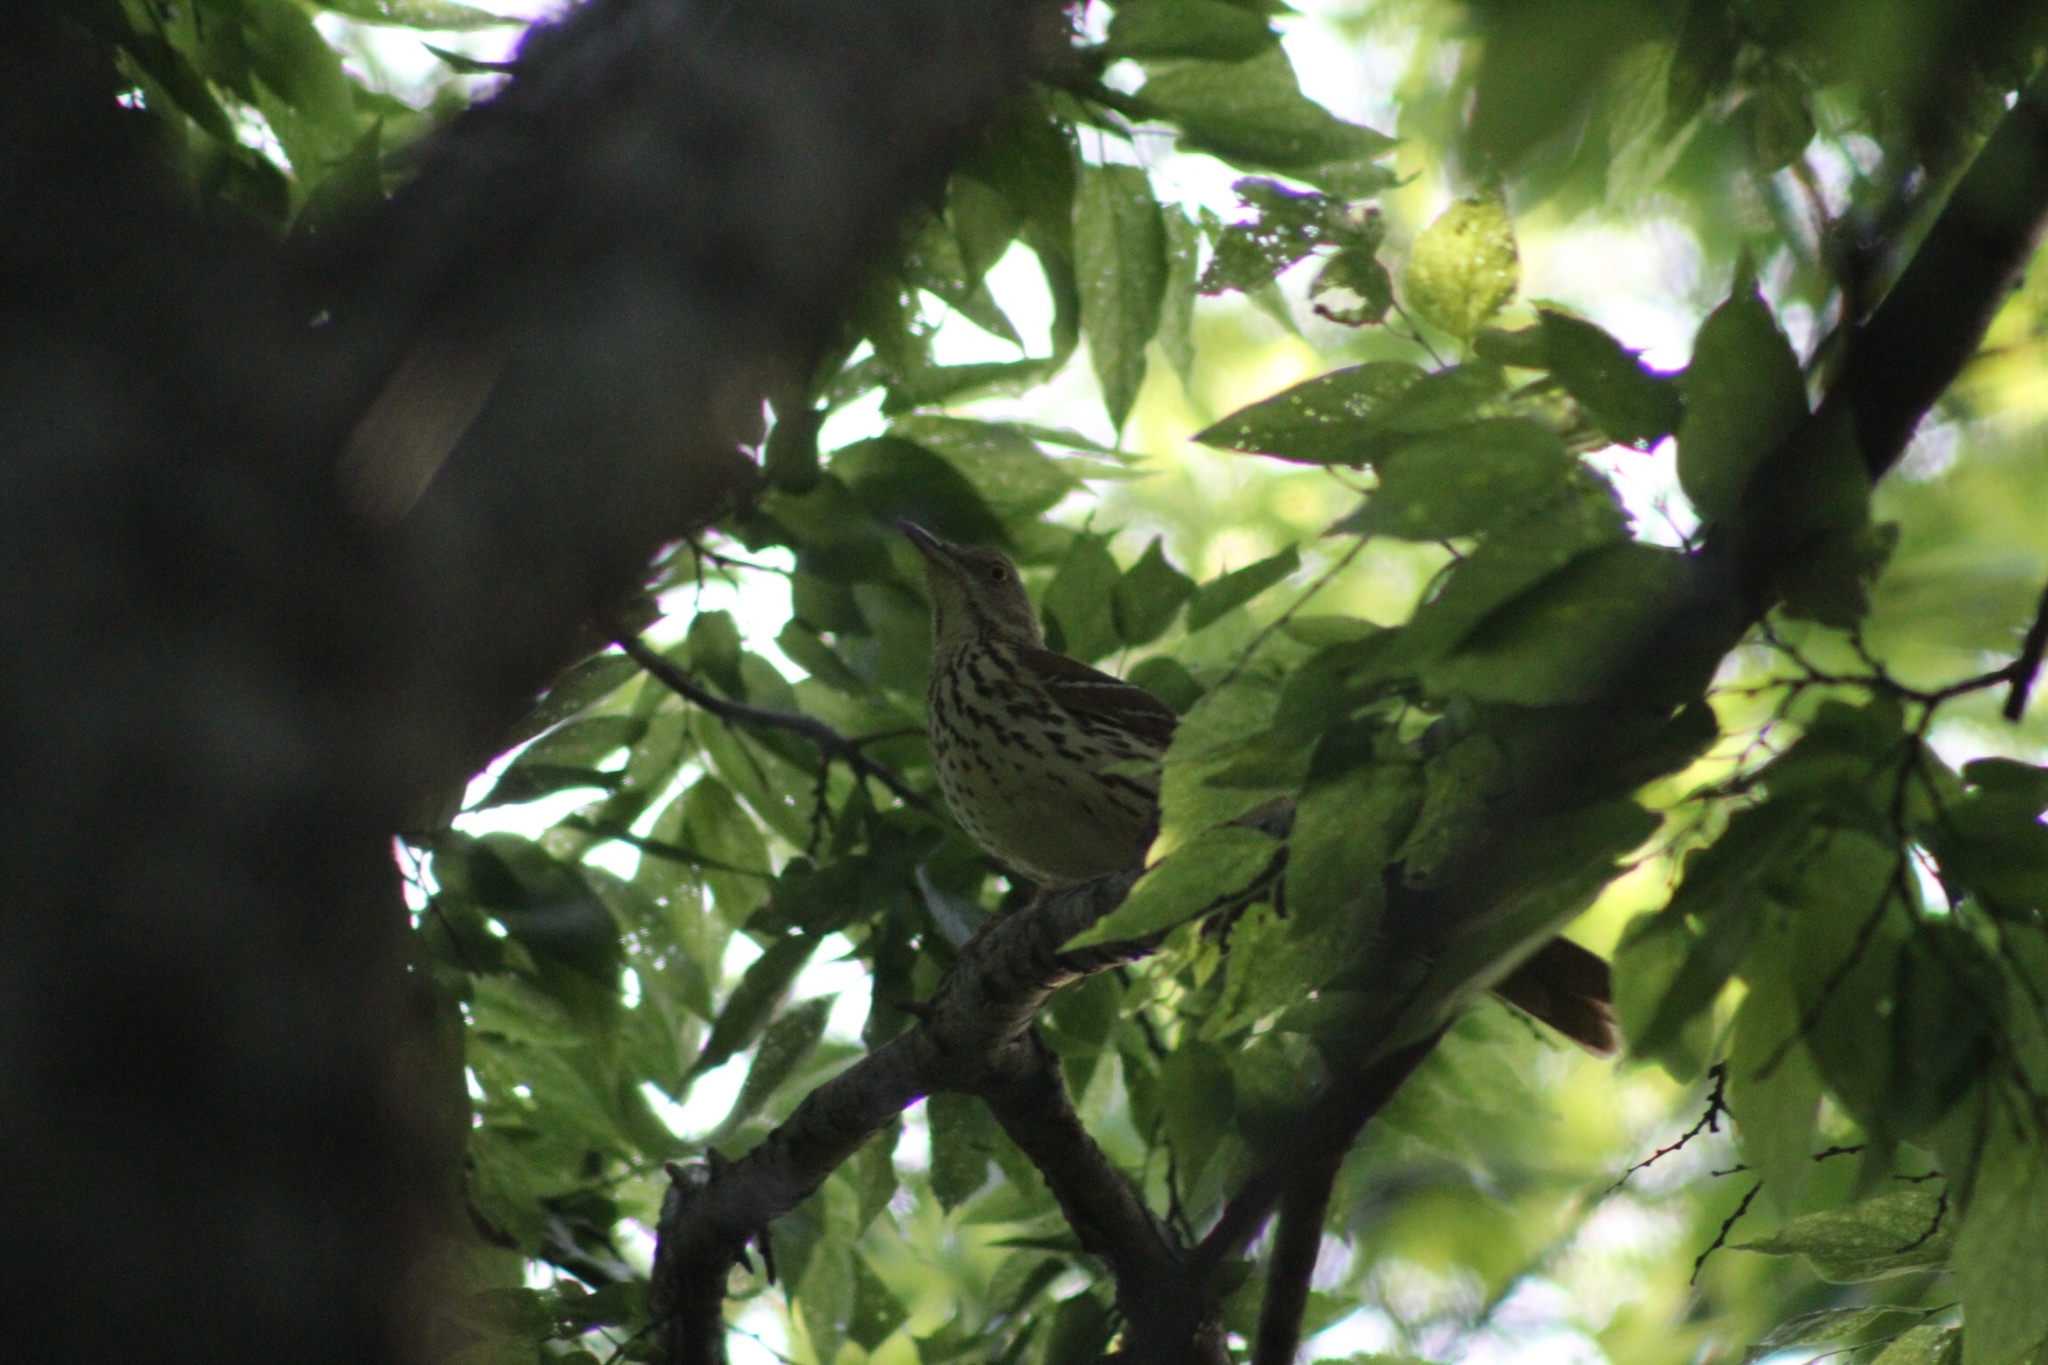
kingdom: Animalia
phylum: Chordata
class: Aves
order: Passeriformes
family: Mimidae
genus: Toxostoma
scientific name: Toxostoma rufum
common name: Brown thrasher
